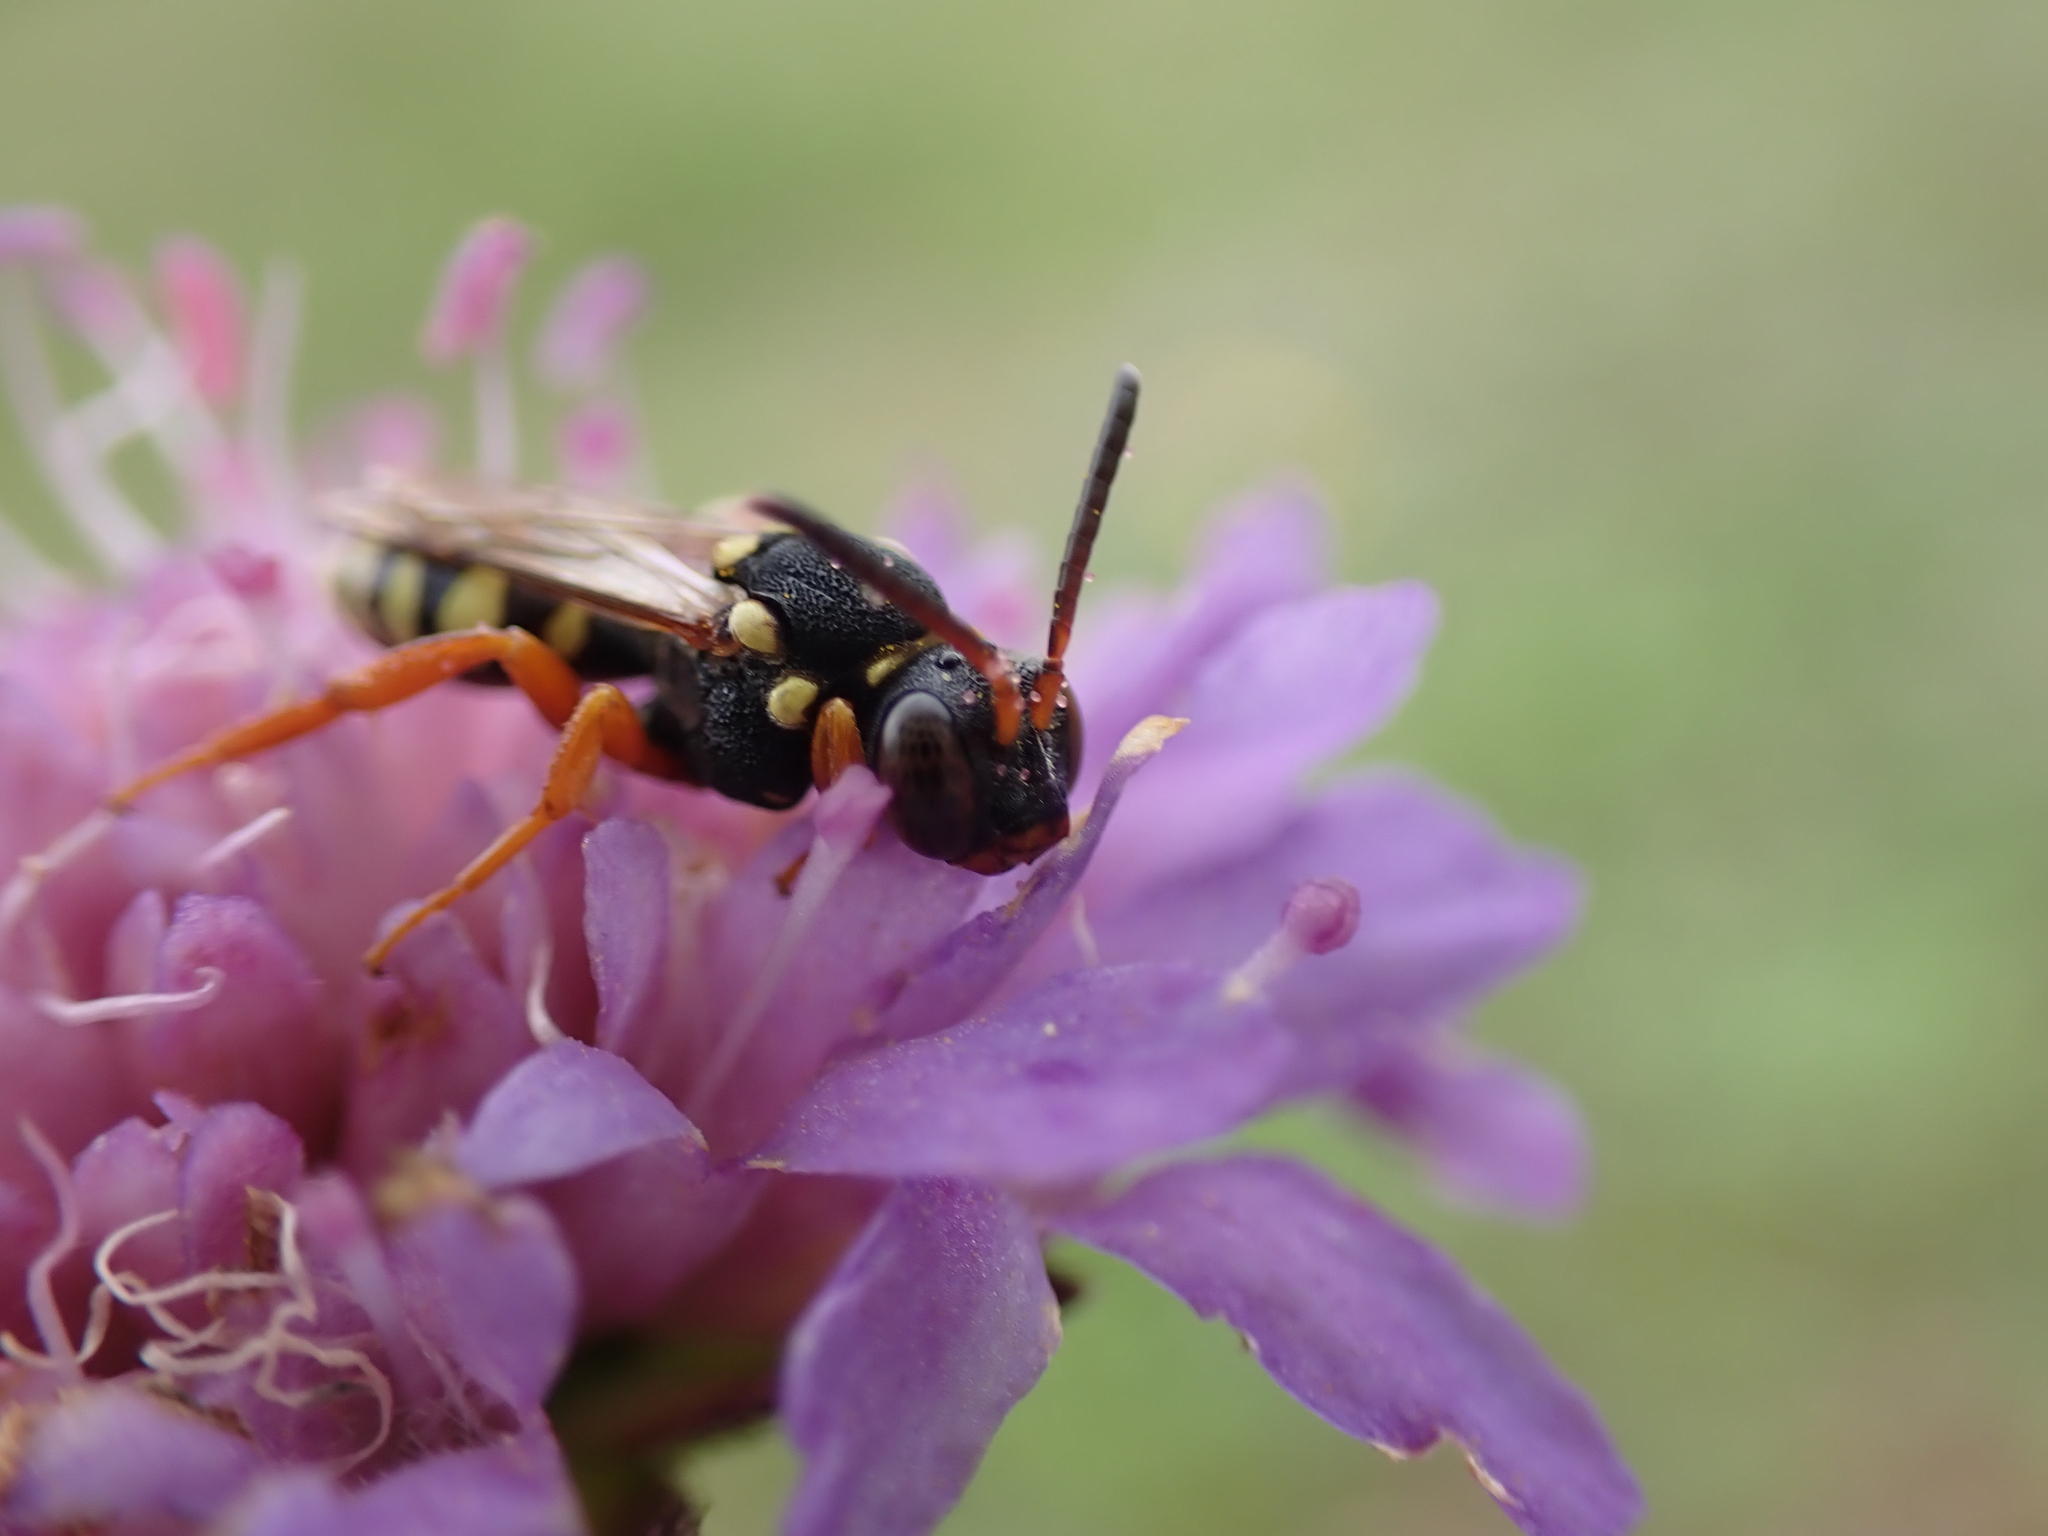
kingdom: Animalia
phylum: Arthropoda
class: Insecta
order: Hymenoptera
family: Apidae
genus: Nomada
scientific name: Nomada flavopicta
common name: Blunthorn nomad bee
